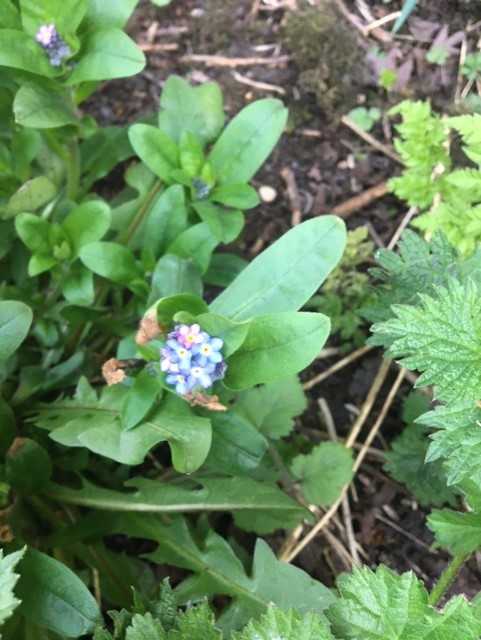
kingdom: Plantae
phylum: Tracheophyta
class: Magnoliopsida
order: Boraginales
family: Boraginaceae
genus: Myosotis
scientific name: Myosotis sylvatica
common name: Wood forget-me-not
